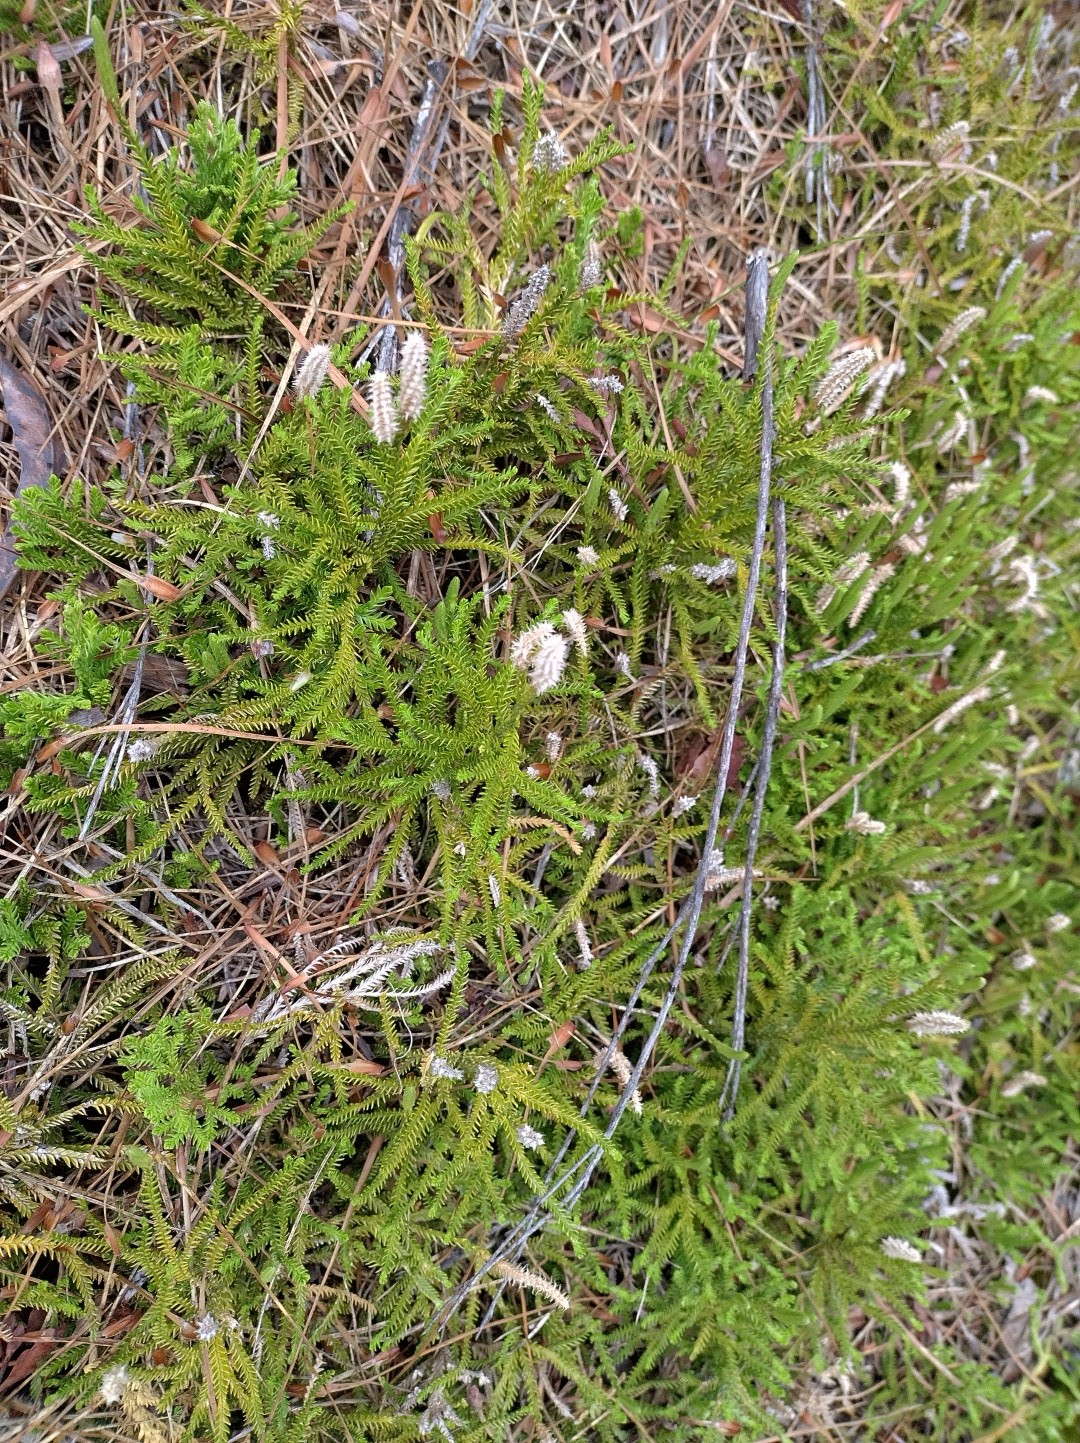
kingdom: Plantae
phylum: Tracheophyta
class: Lycopodiopsida
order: Lycopodiales
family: Lycopodiaceae
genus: Diphasium
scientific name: Diphasium scariosum
